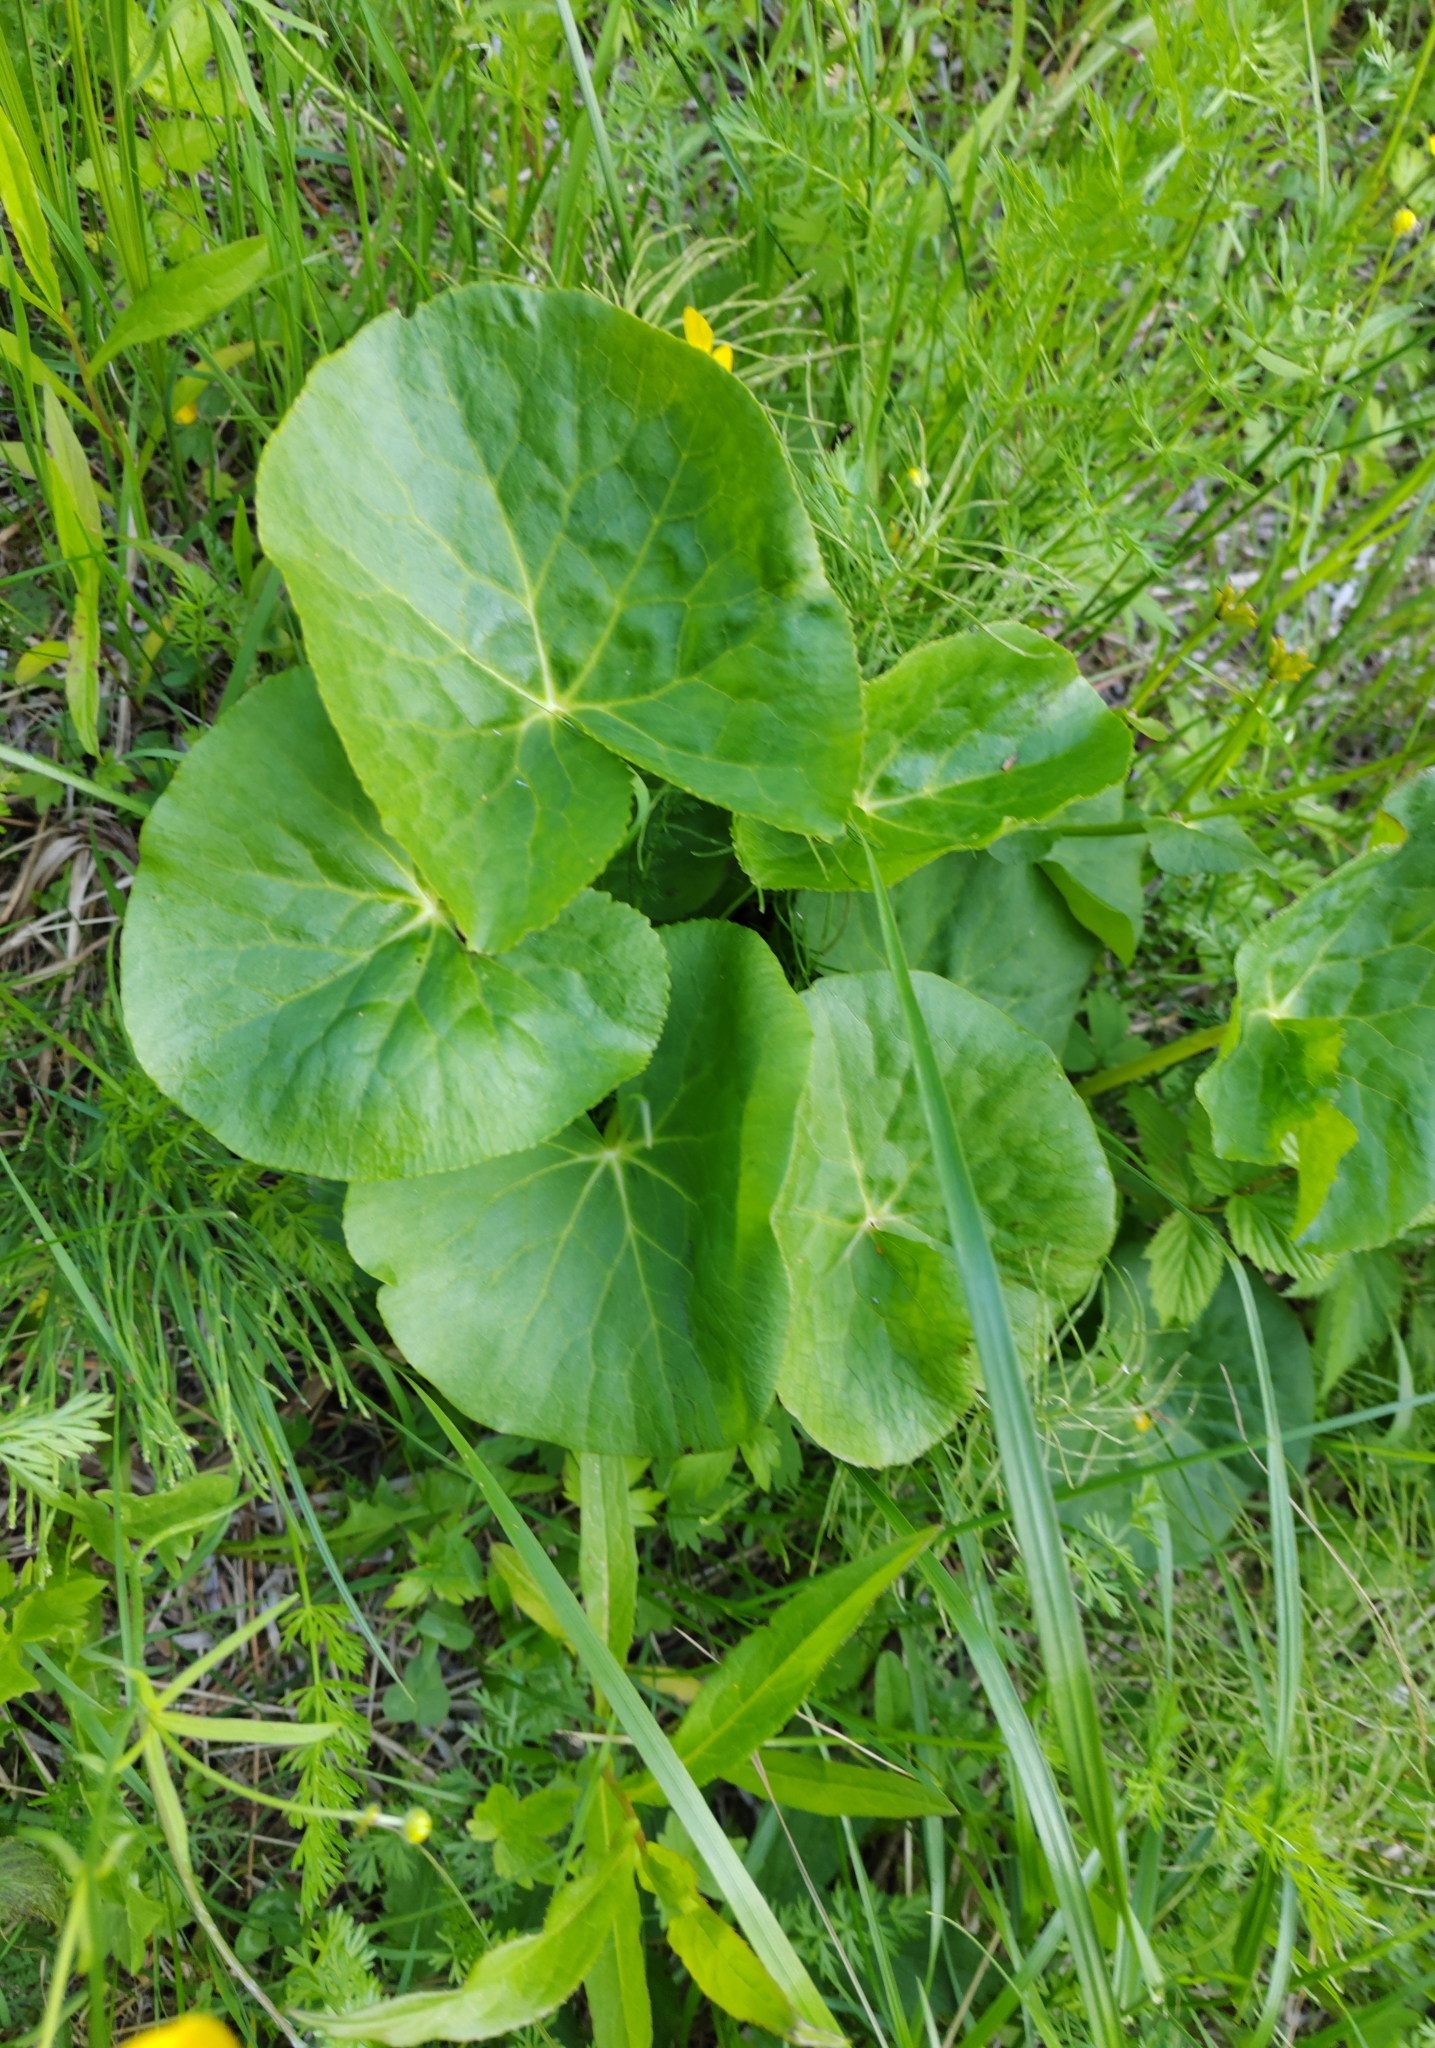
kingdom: Plantae
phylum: Tracheophyta
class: Magnoliopsida
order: Ranunculales
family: Ranunculaceae
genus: Caltha
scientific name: Caltha palustris
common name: Marsh marigold
